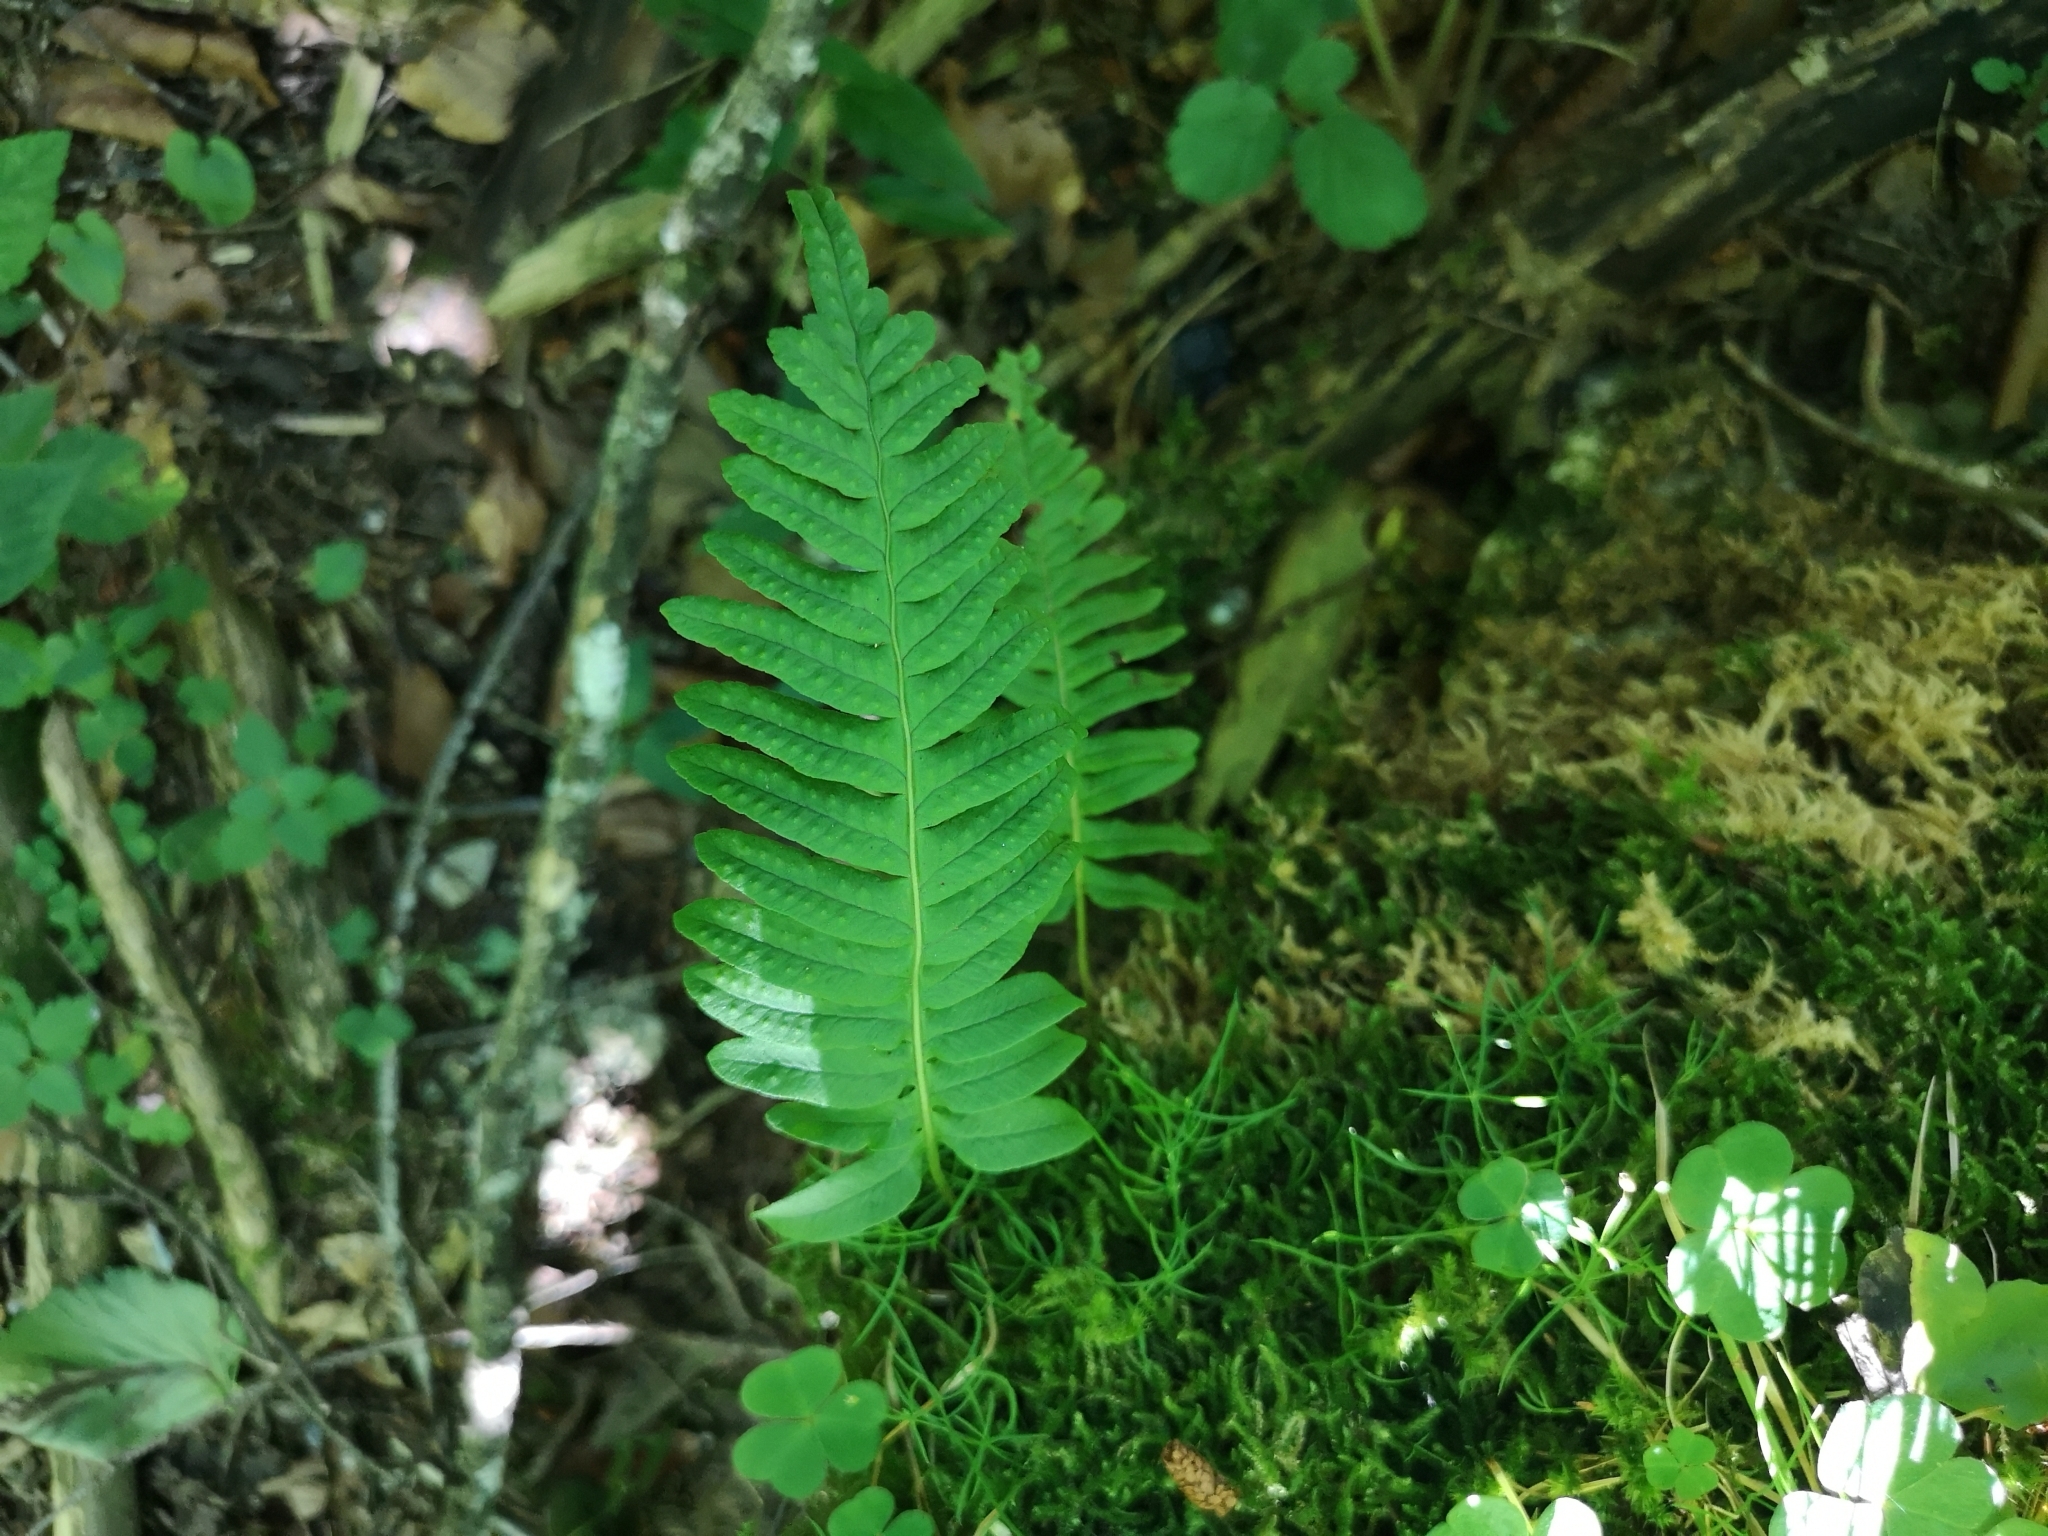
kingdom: Plantae
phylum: Tracheophyta
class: Polypodiopsida
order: Polypodiales
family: Polypodiaceae
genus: Polypodium
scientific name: Polypodium vulgare
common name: Common polypody
